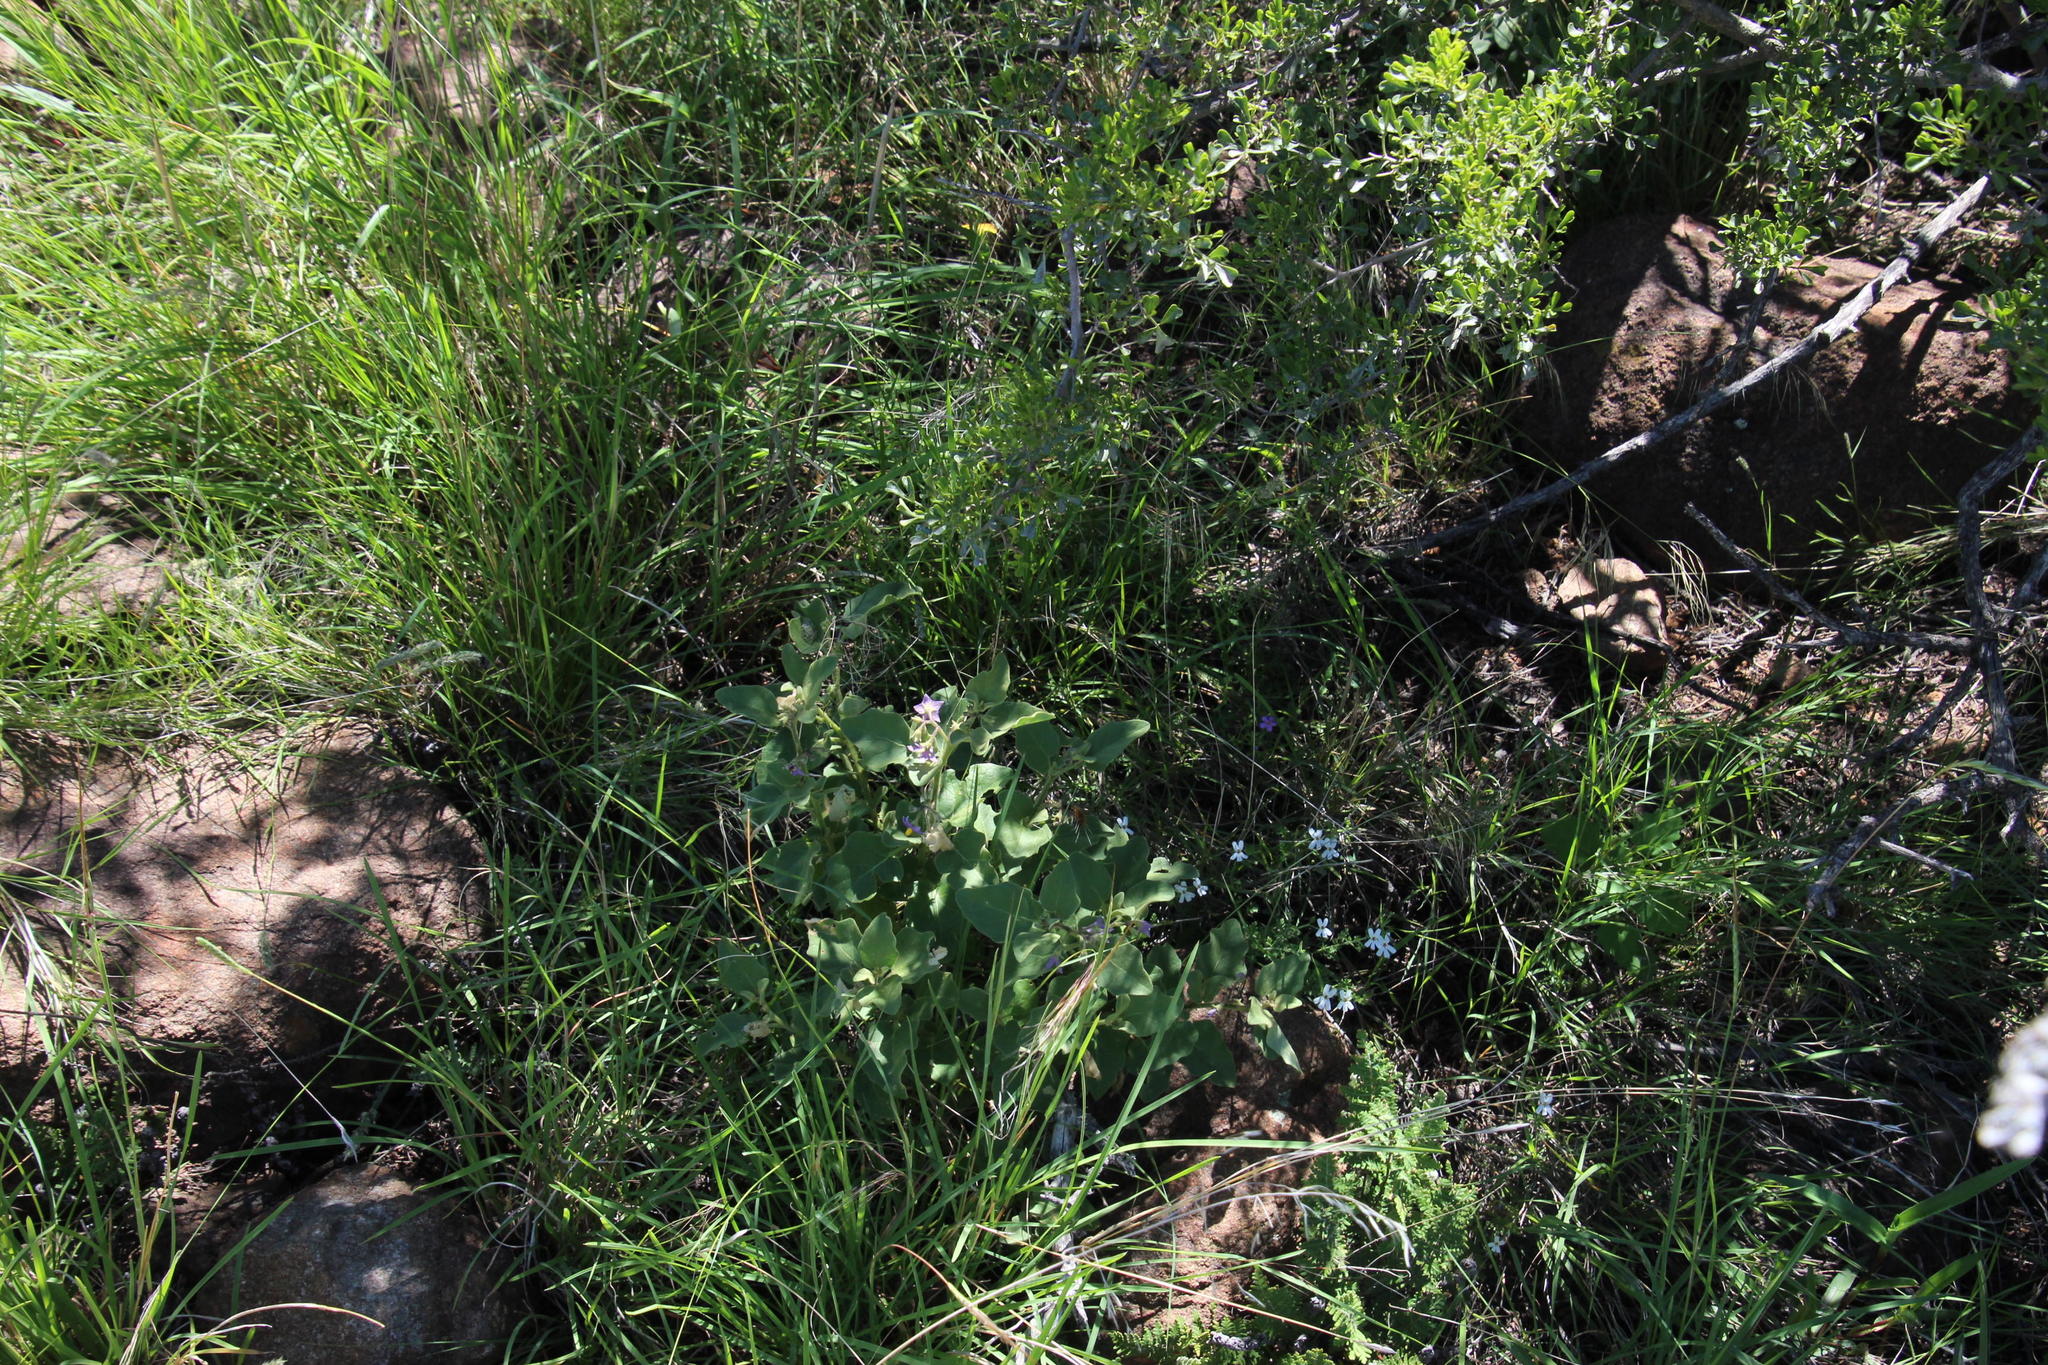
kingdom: Plantae
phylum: Tracheophyta
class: Magnoliopsida
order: Solanales
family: Solanaceae
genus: Solanum
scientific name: Solanum tomentosum
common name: Wild aubergine
